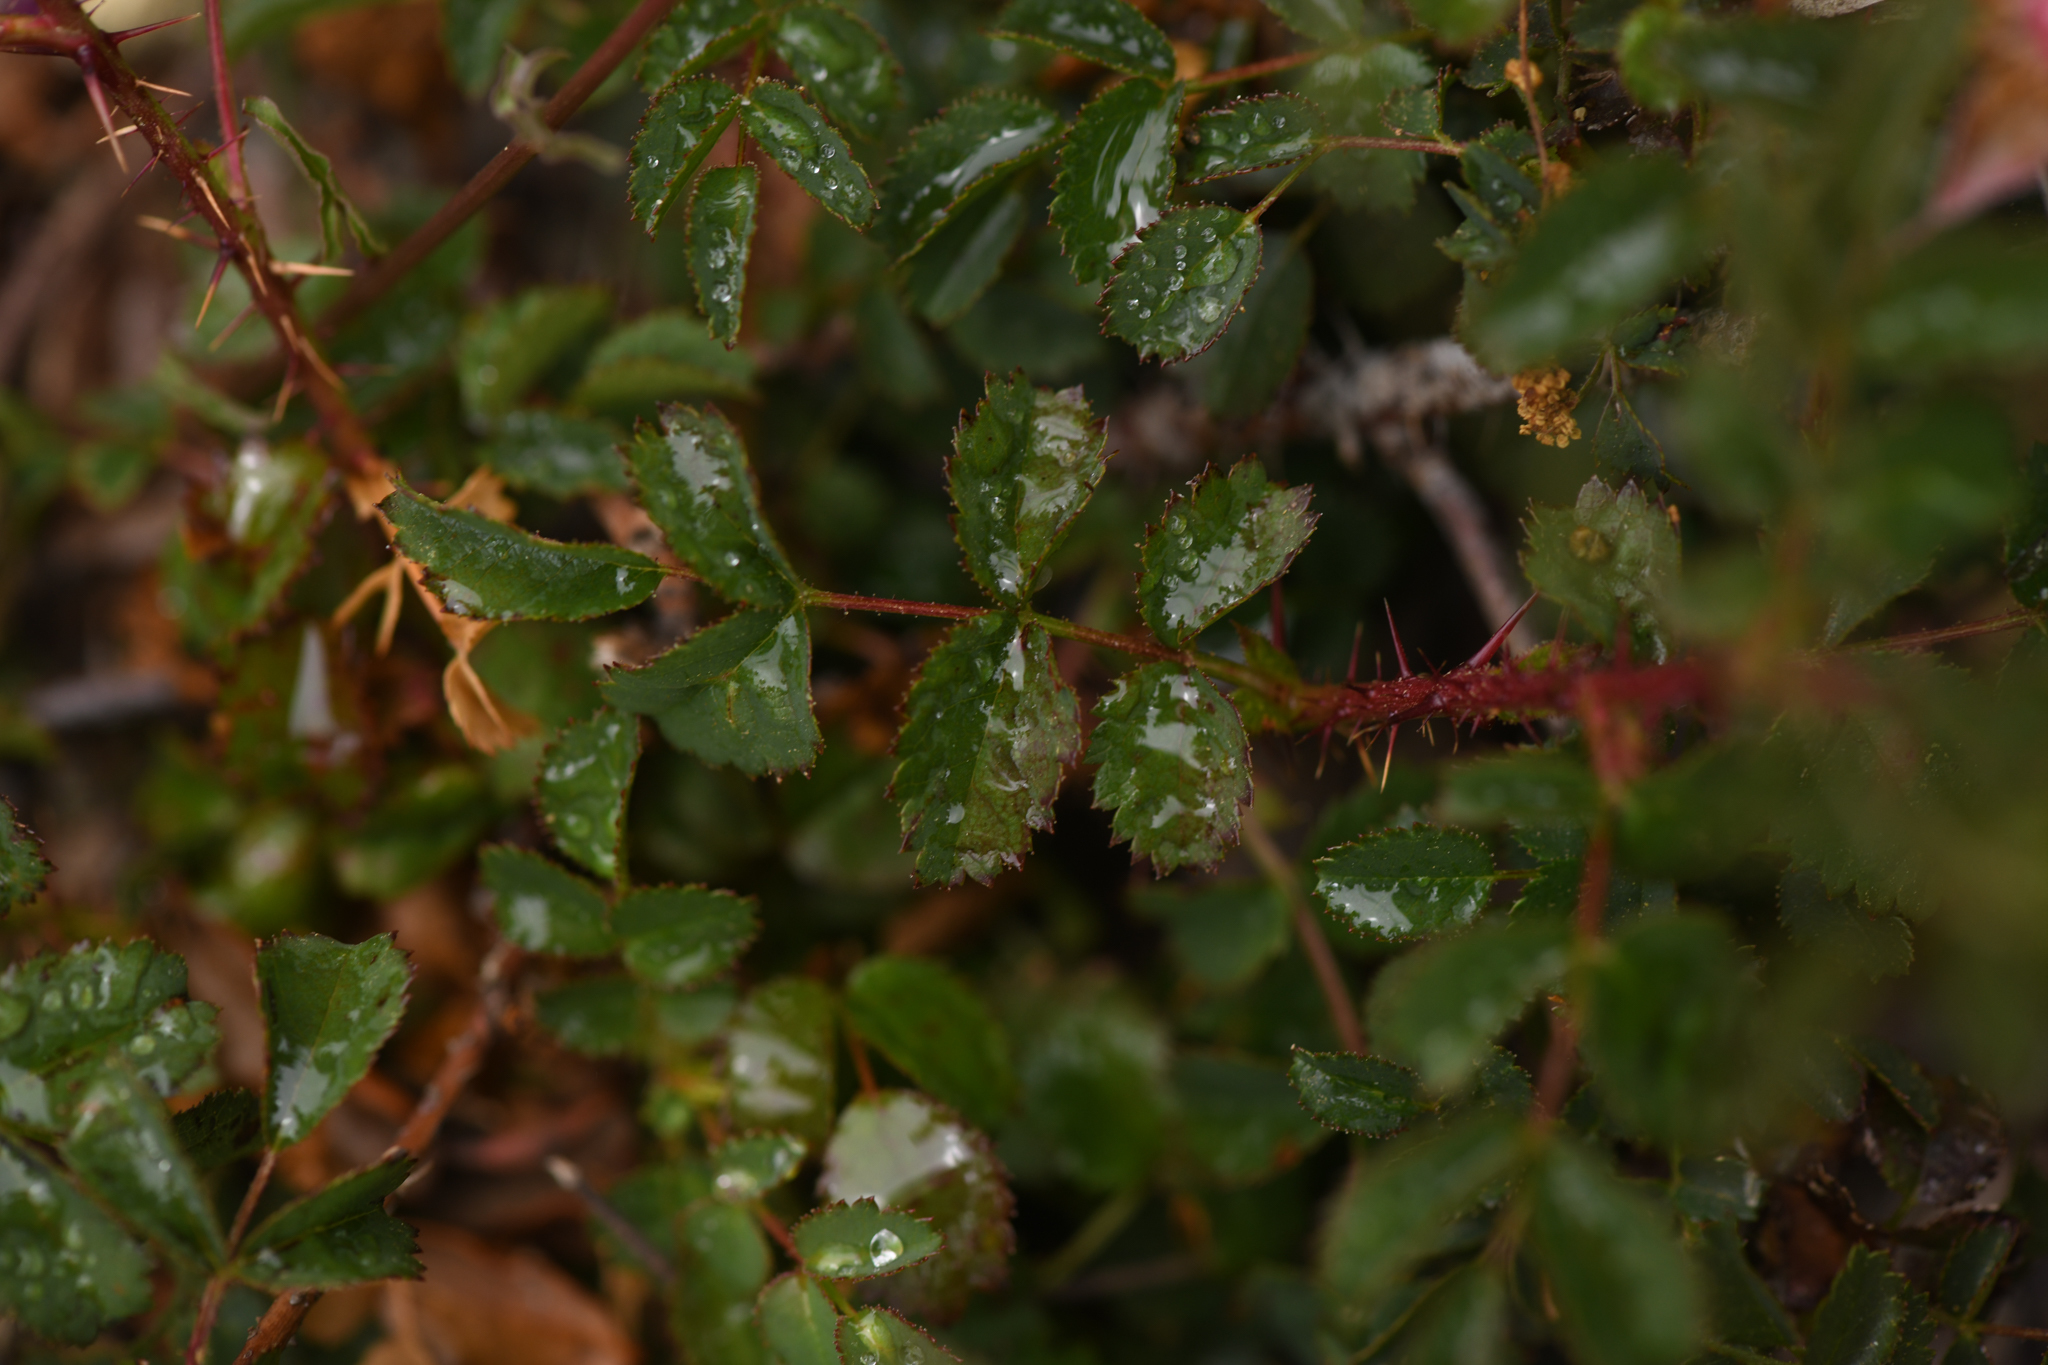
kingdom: Plantae
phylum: Tracheophyta
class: Magnoliopsida
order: Rosales
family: Rosaceae
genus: Rosa
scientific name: Rosa spithamea
